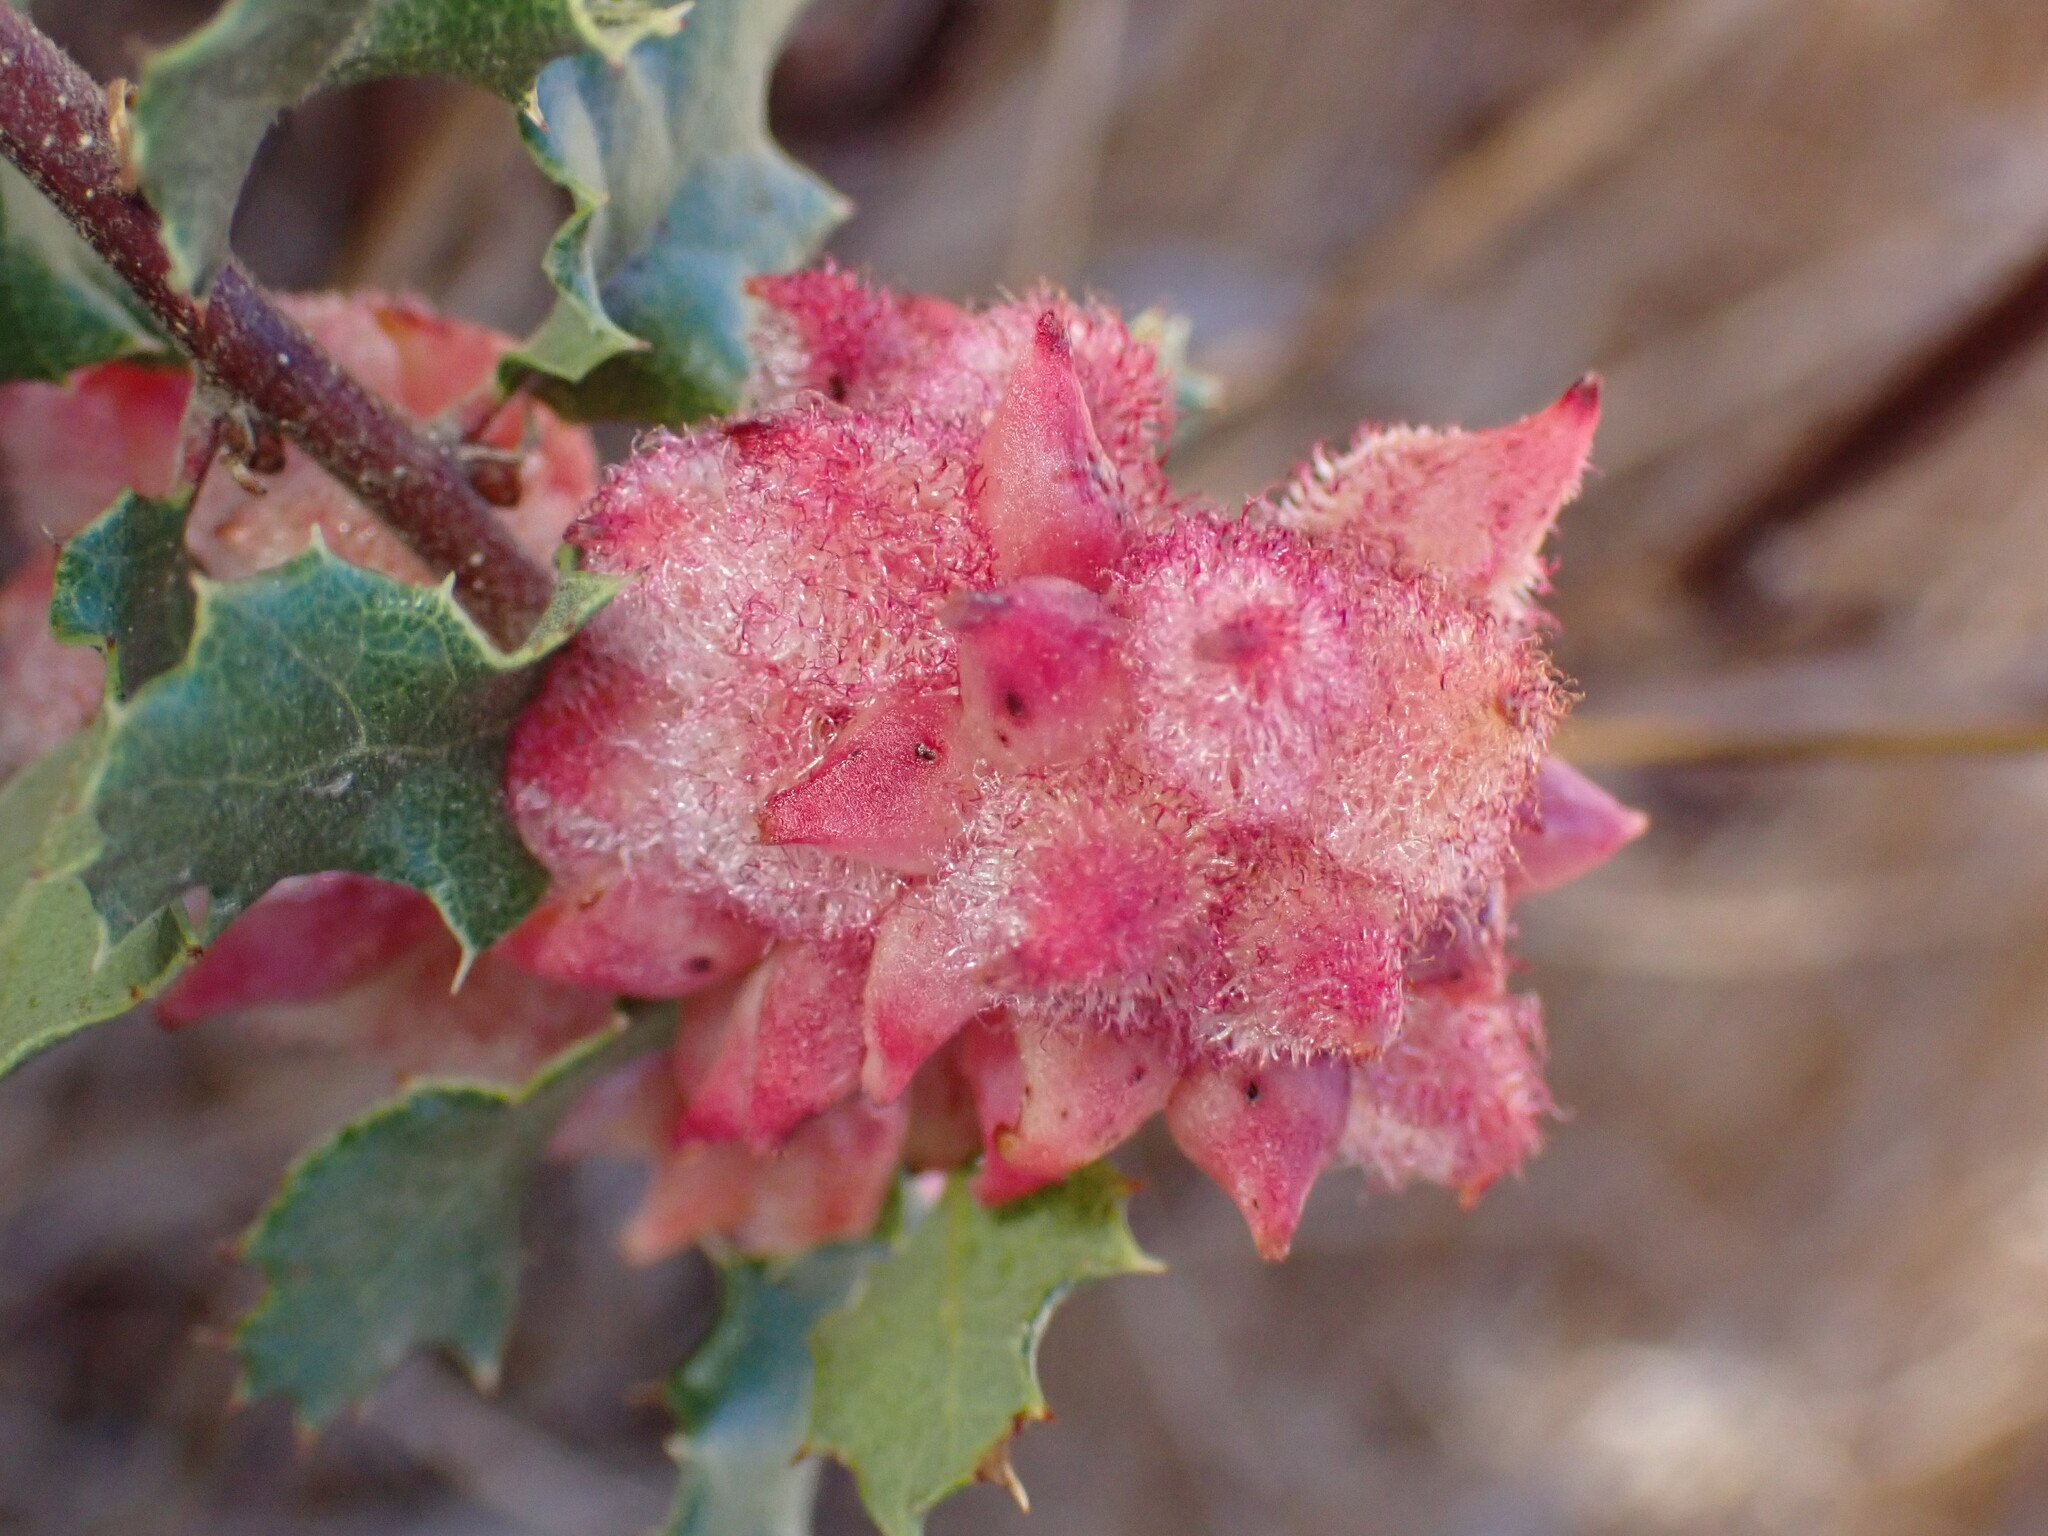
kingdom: Animalia
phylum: Arthropoda
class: Insecta
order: Hymenoptera
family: Cynipidae
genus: Andricus
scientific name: Andricus
